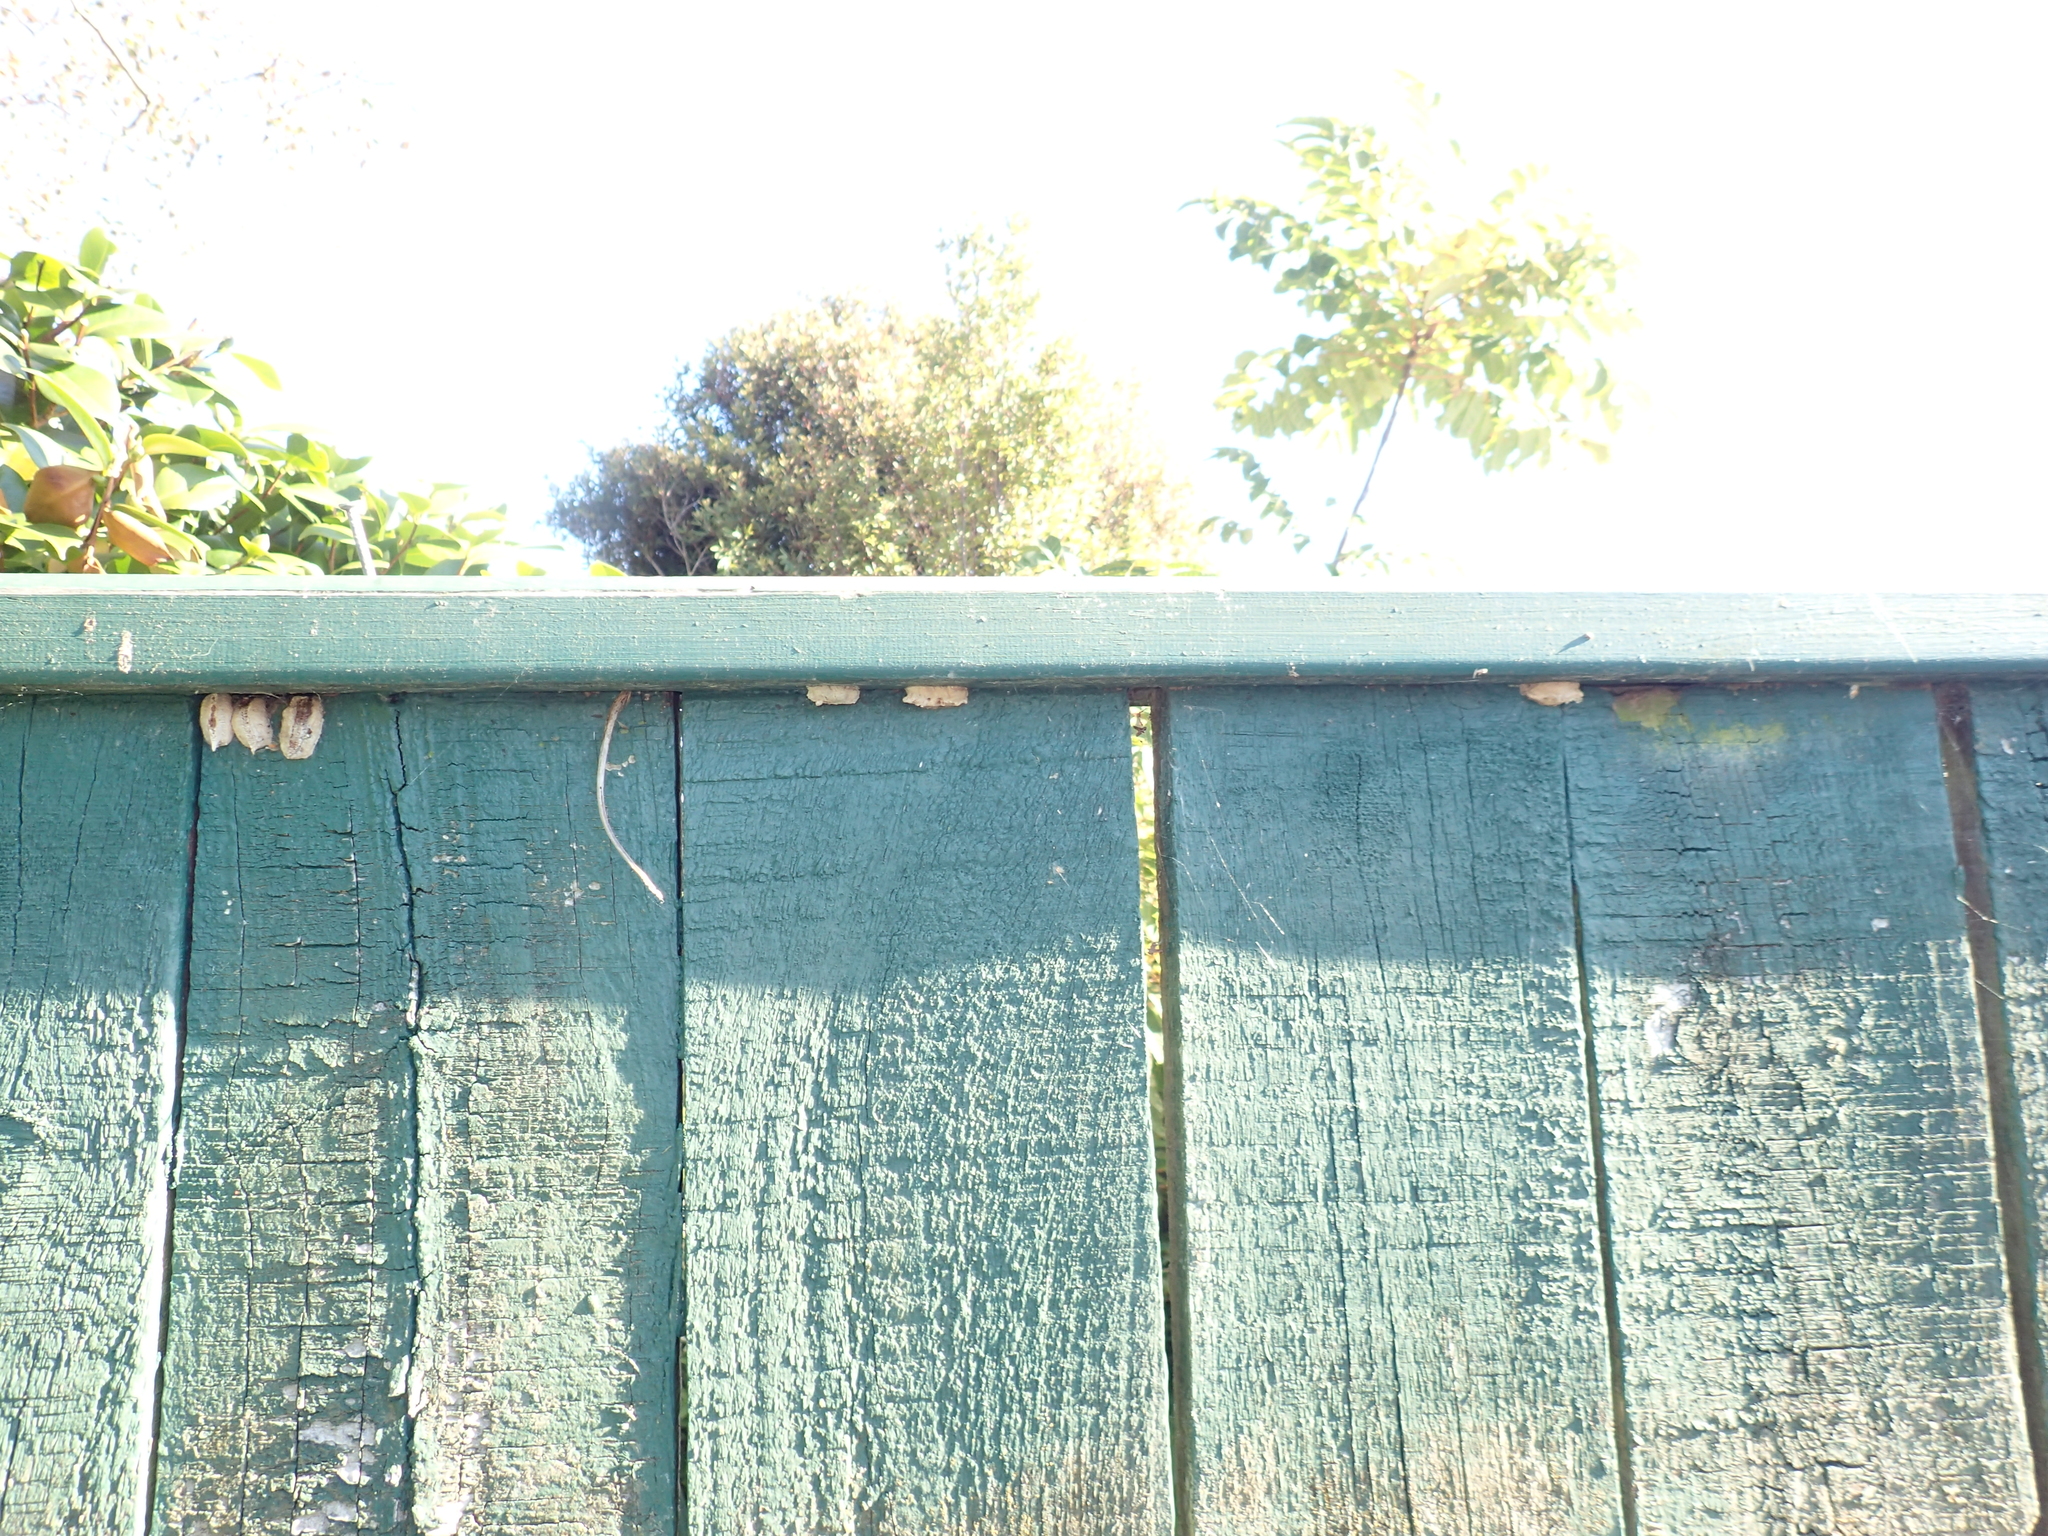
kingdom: Animalia
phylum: Arthropoda
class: Insecta
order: Mantodea
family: Miomantidae
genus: Miomantis
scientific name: Miomantis caffra
